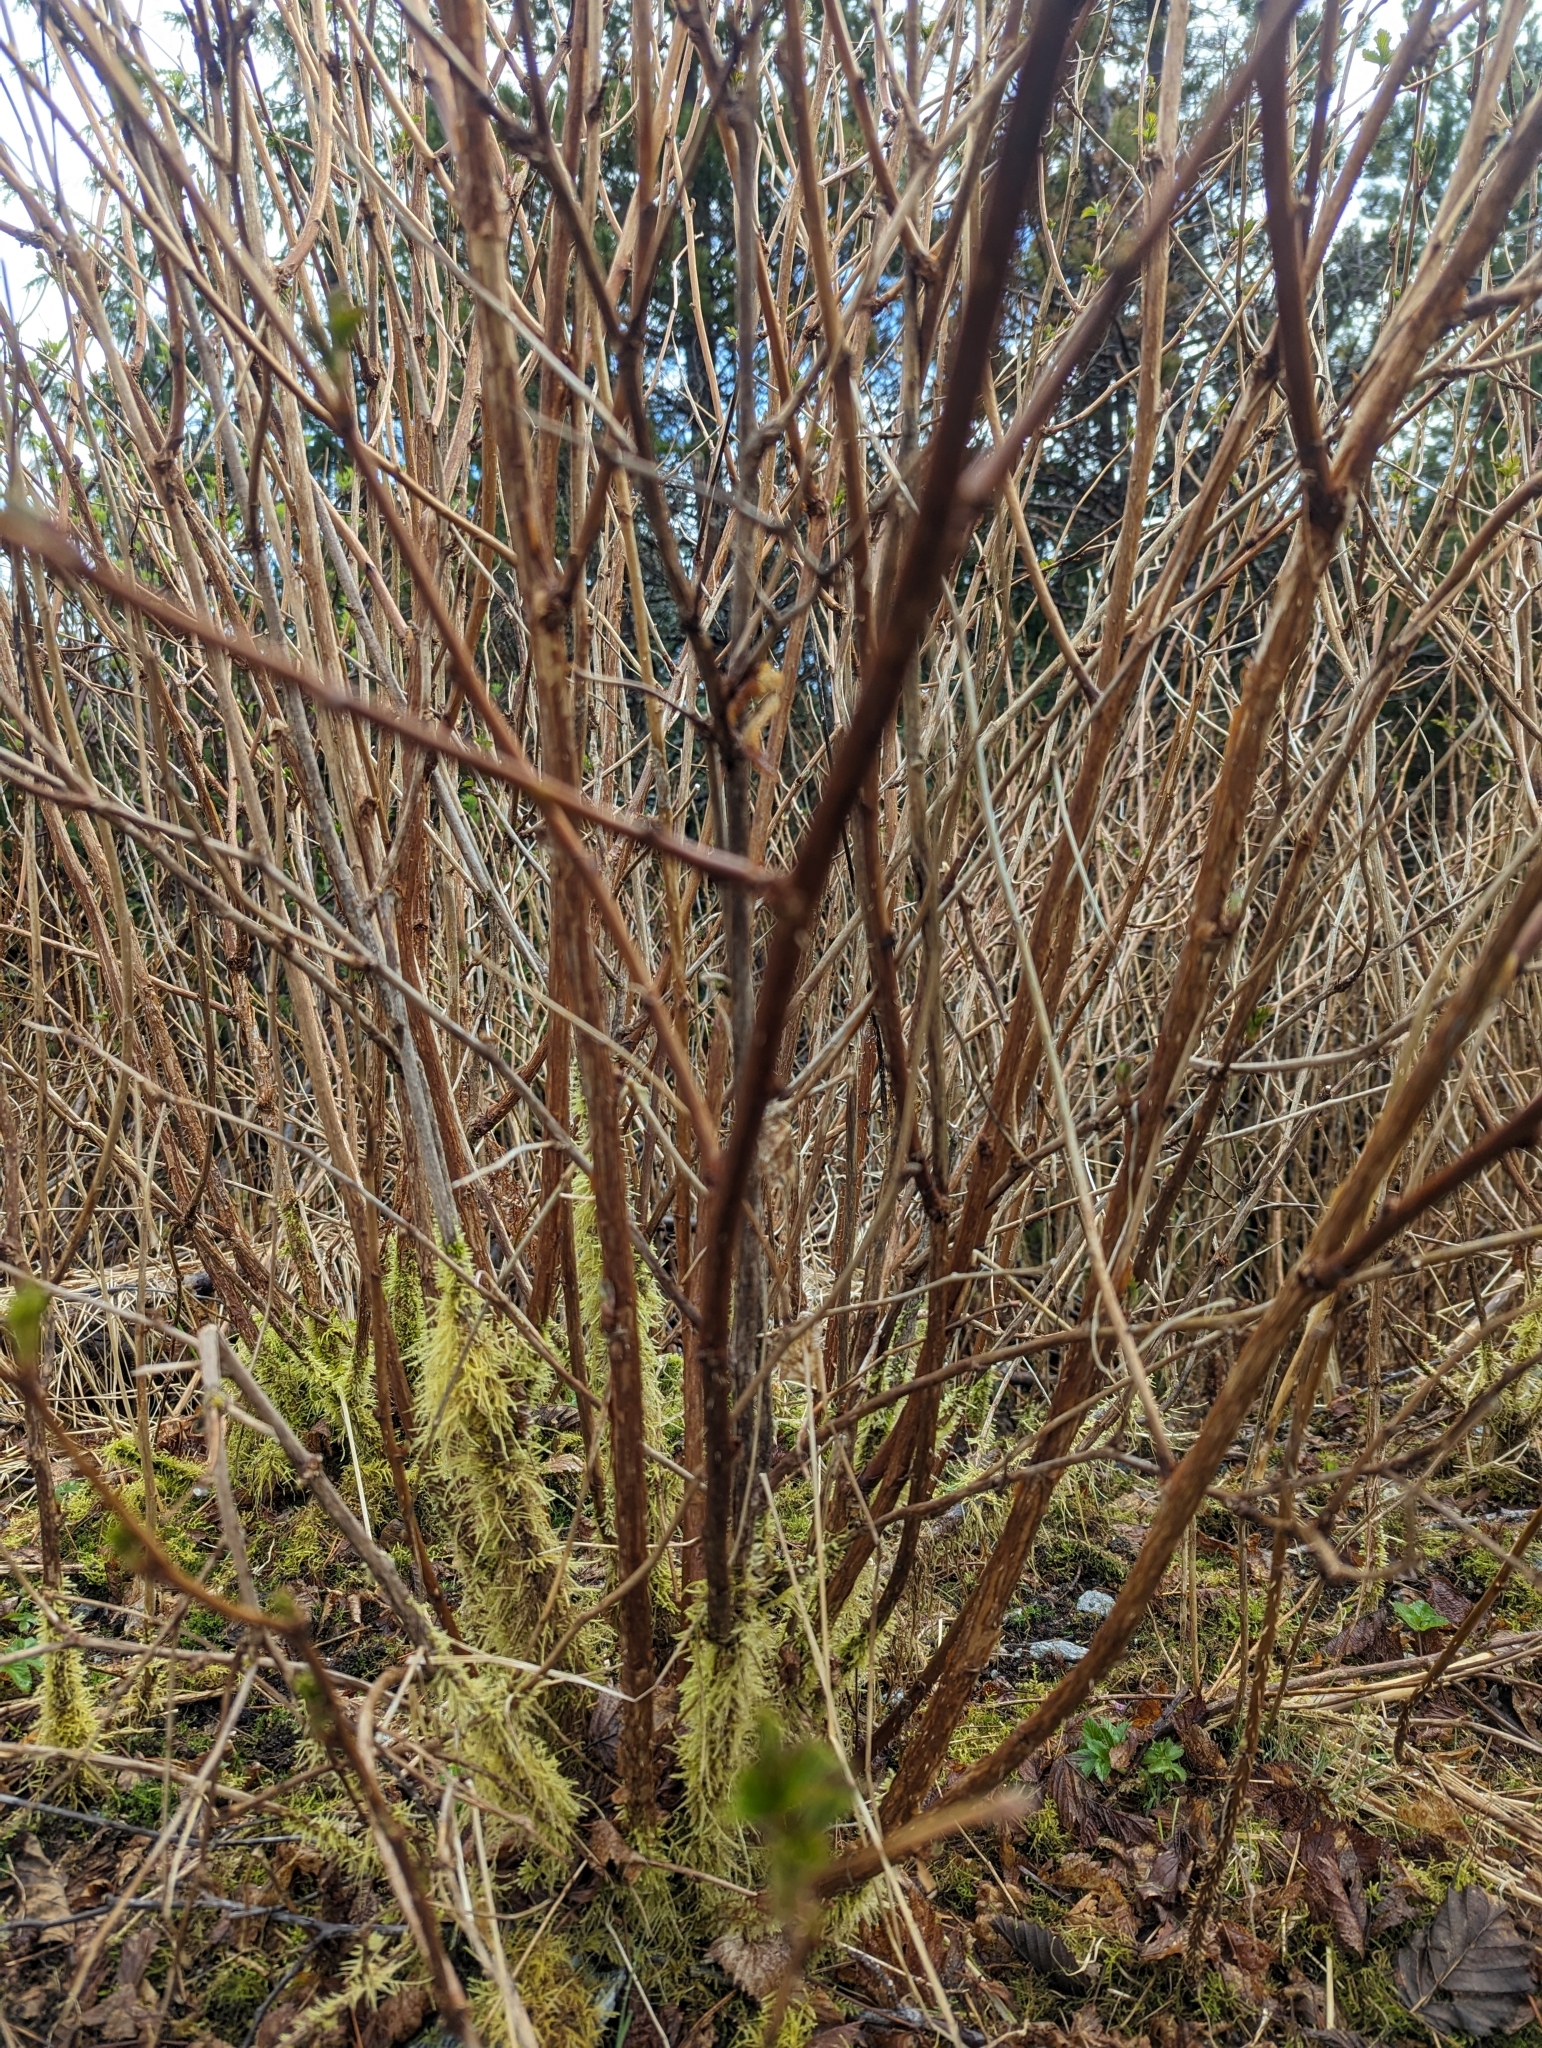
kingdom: Plantae
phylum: Tracheophyta
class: Magnoliopsida
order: Rosales
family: Rosaceae
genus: Rubus
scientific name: Rubus spectabilis
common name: Salmonberry
